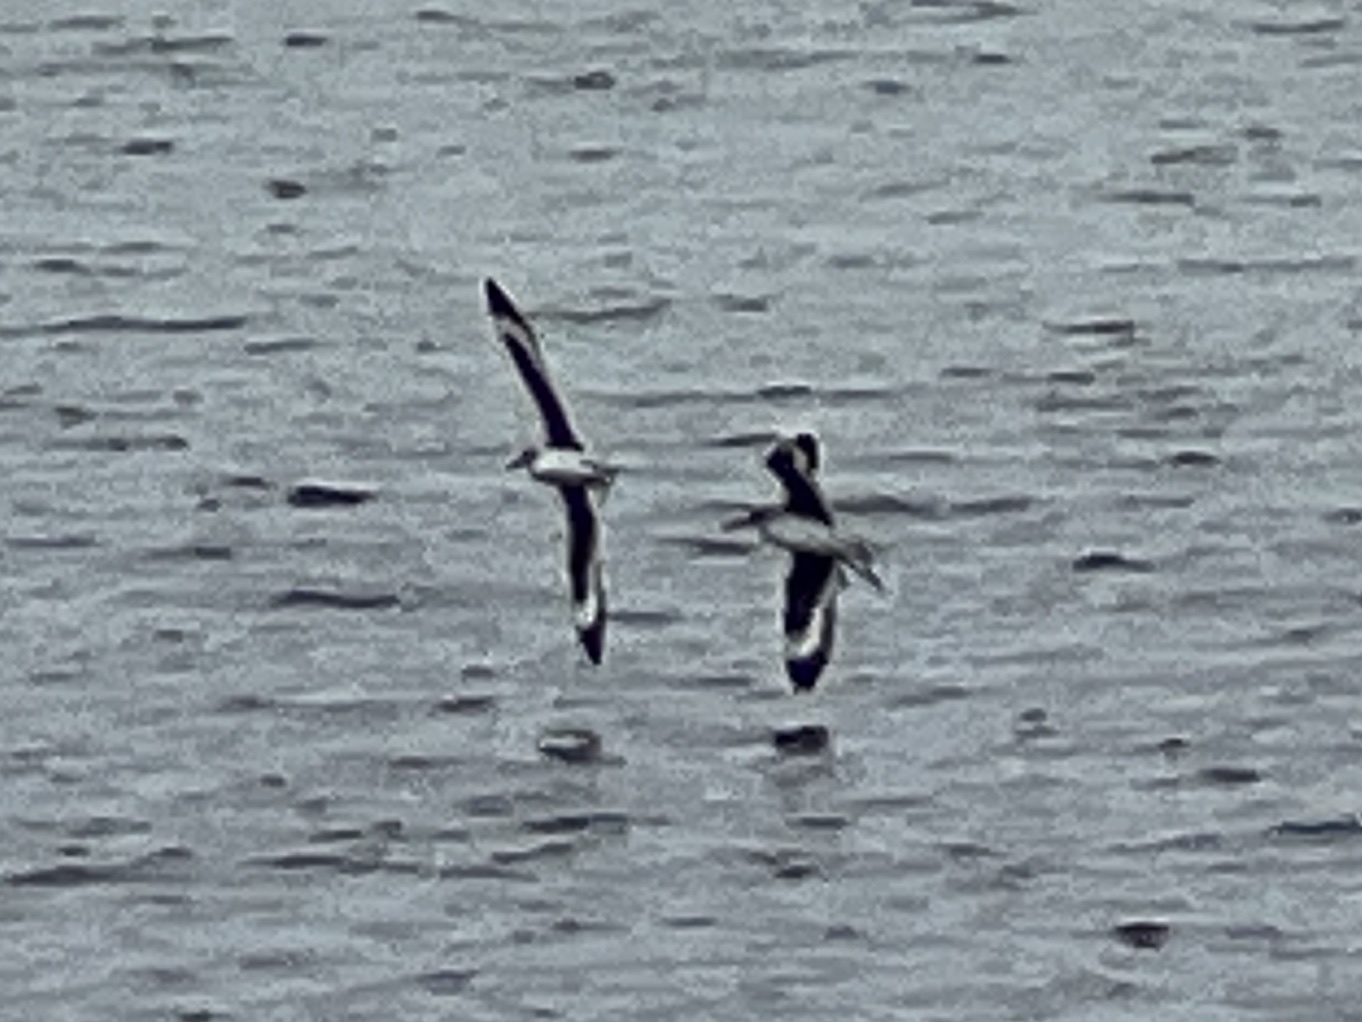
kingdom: Animalia
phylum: Chordata
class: Aves
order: Charadriiformes
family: Scolopacidae
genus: Tringa
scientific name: Tringa semipalmata
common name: Willet
